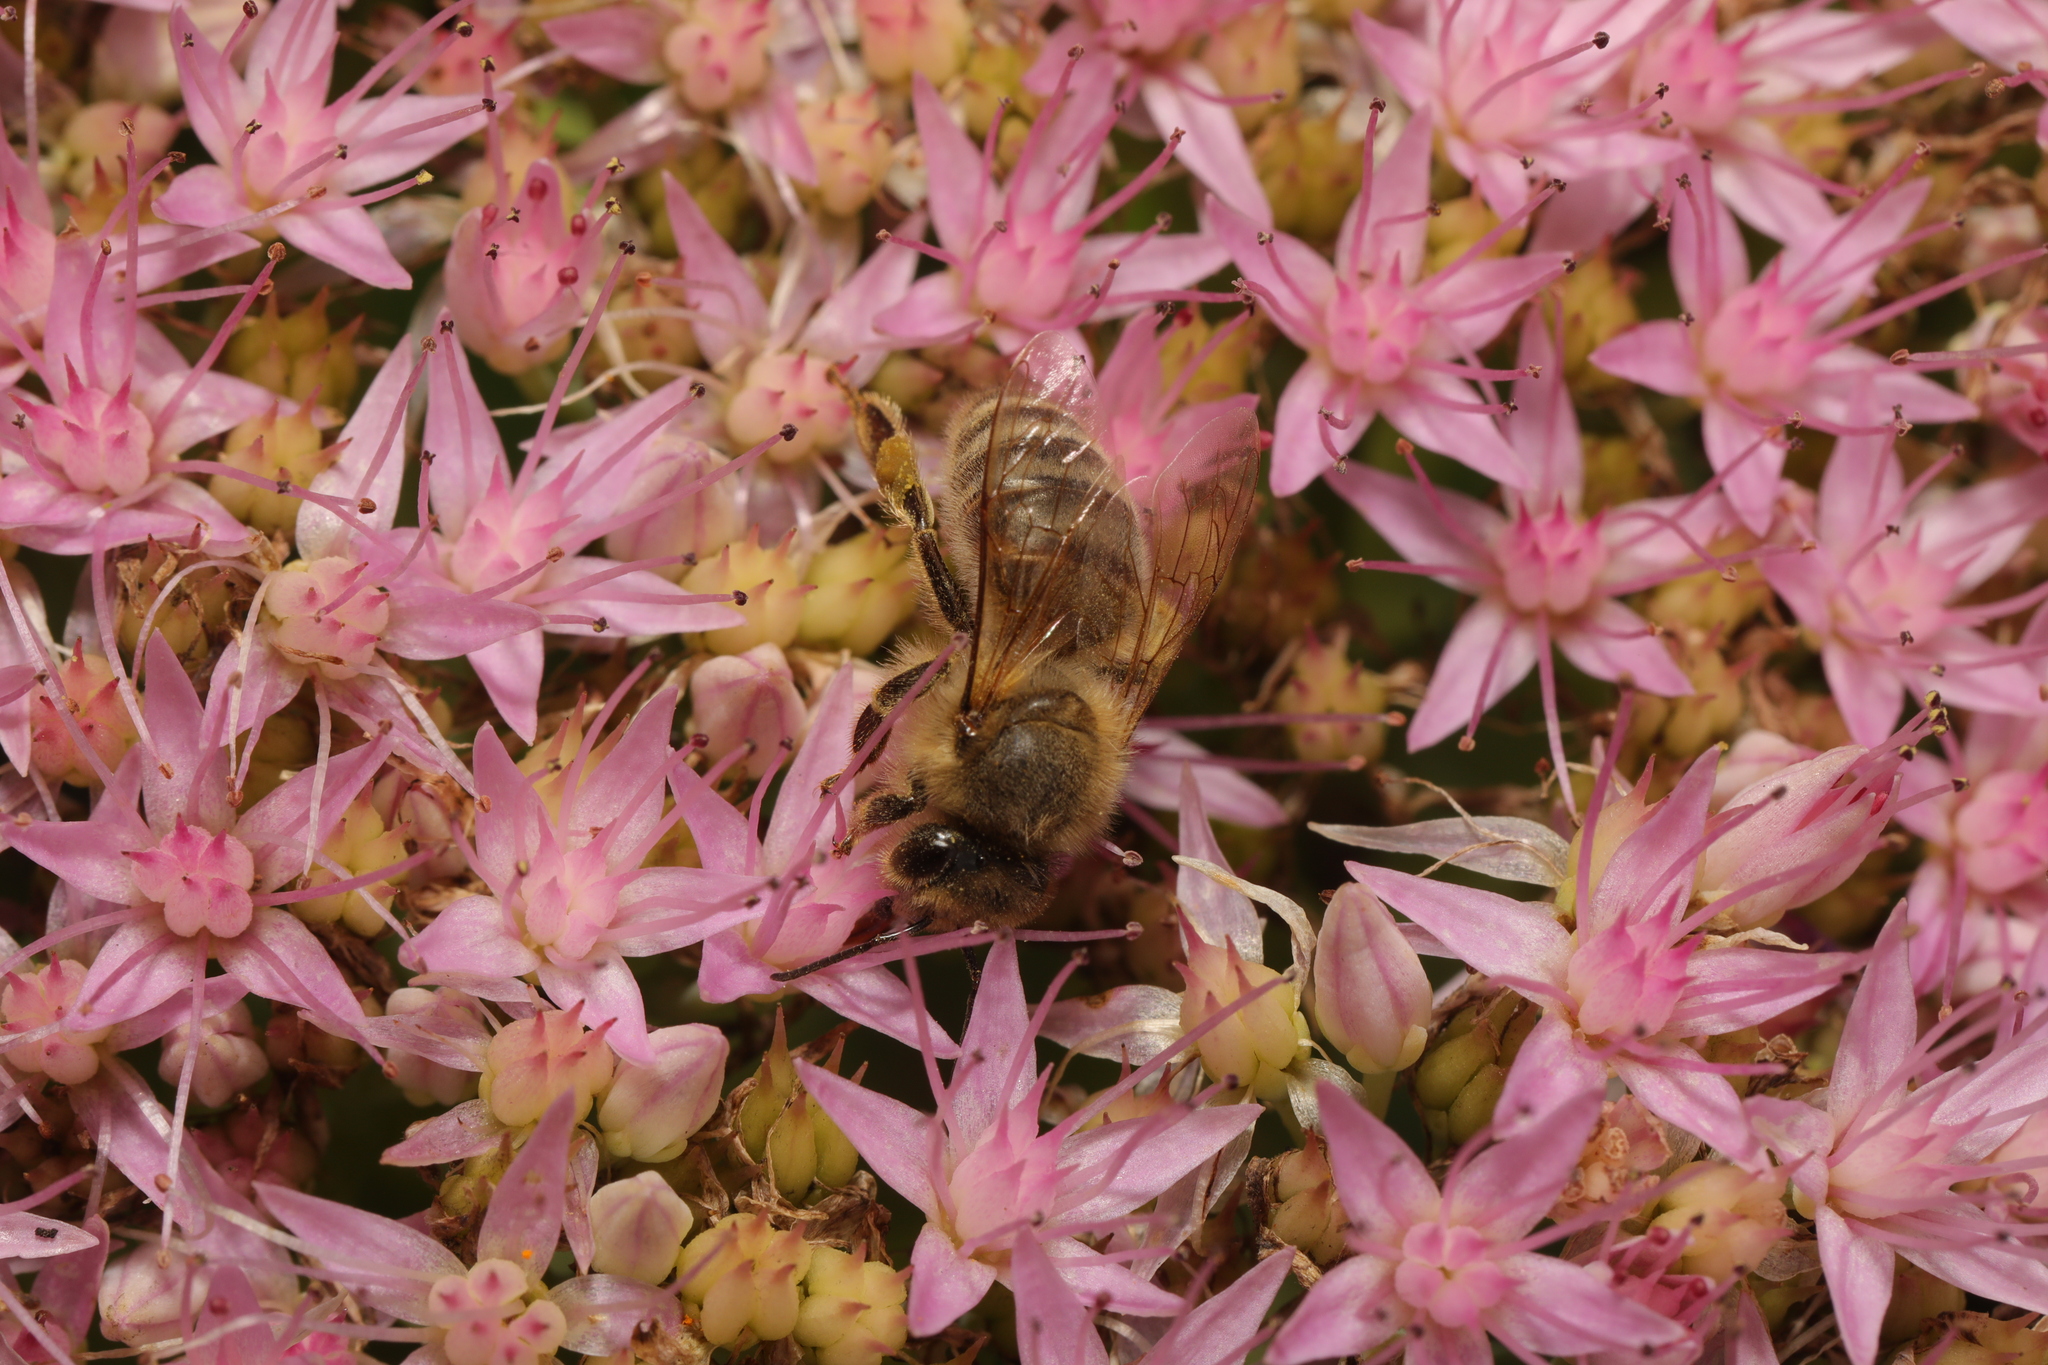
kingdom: Animalia
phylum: Arthropoda
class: Insecta
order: Hymenoptera
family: Apidae
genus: Apis
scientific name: Apis mellifera
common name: Honey bee
